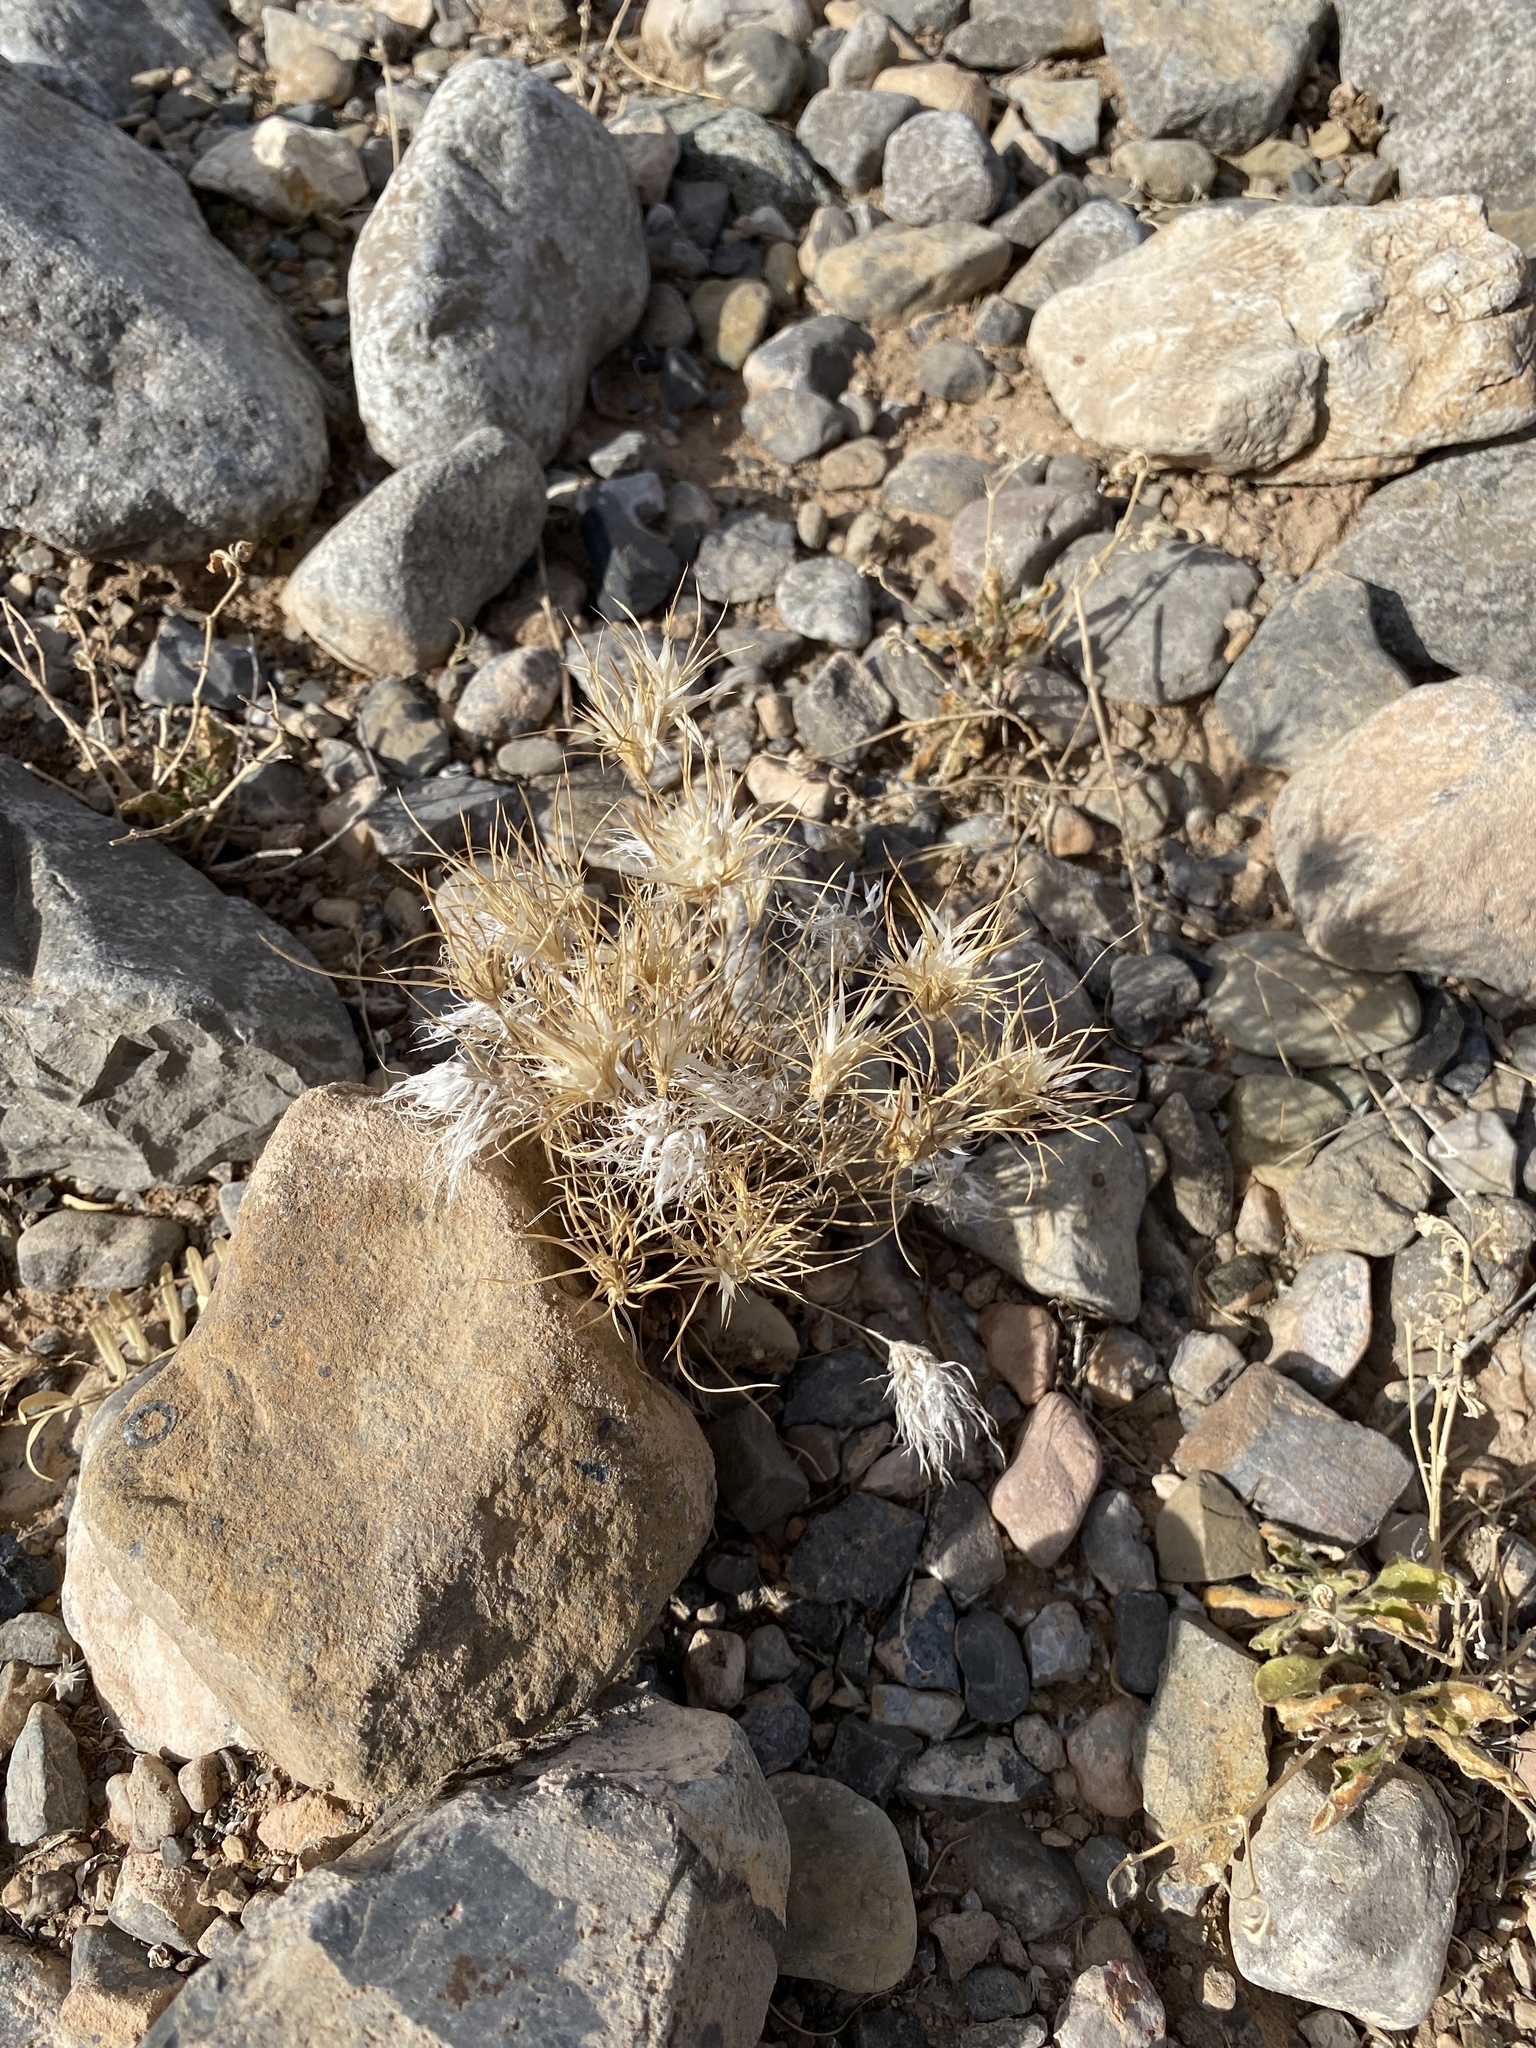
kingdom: Plantae
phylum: Tracheophyta
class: Liliopsida
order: Poales
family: Poaceae
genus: Dasyochloa
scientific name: Dasyochloa pulchella
